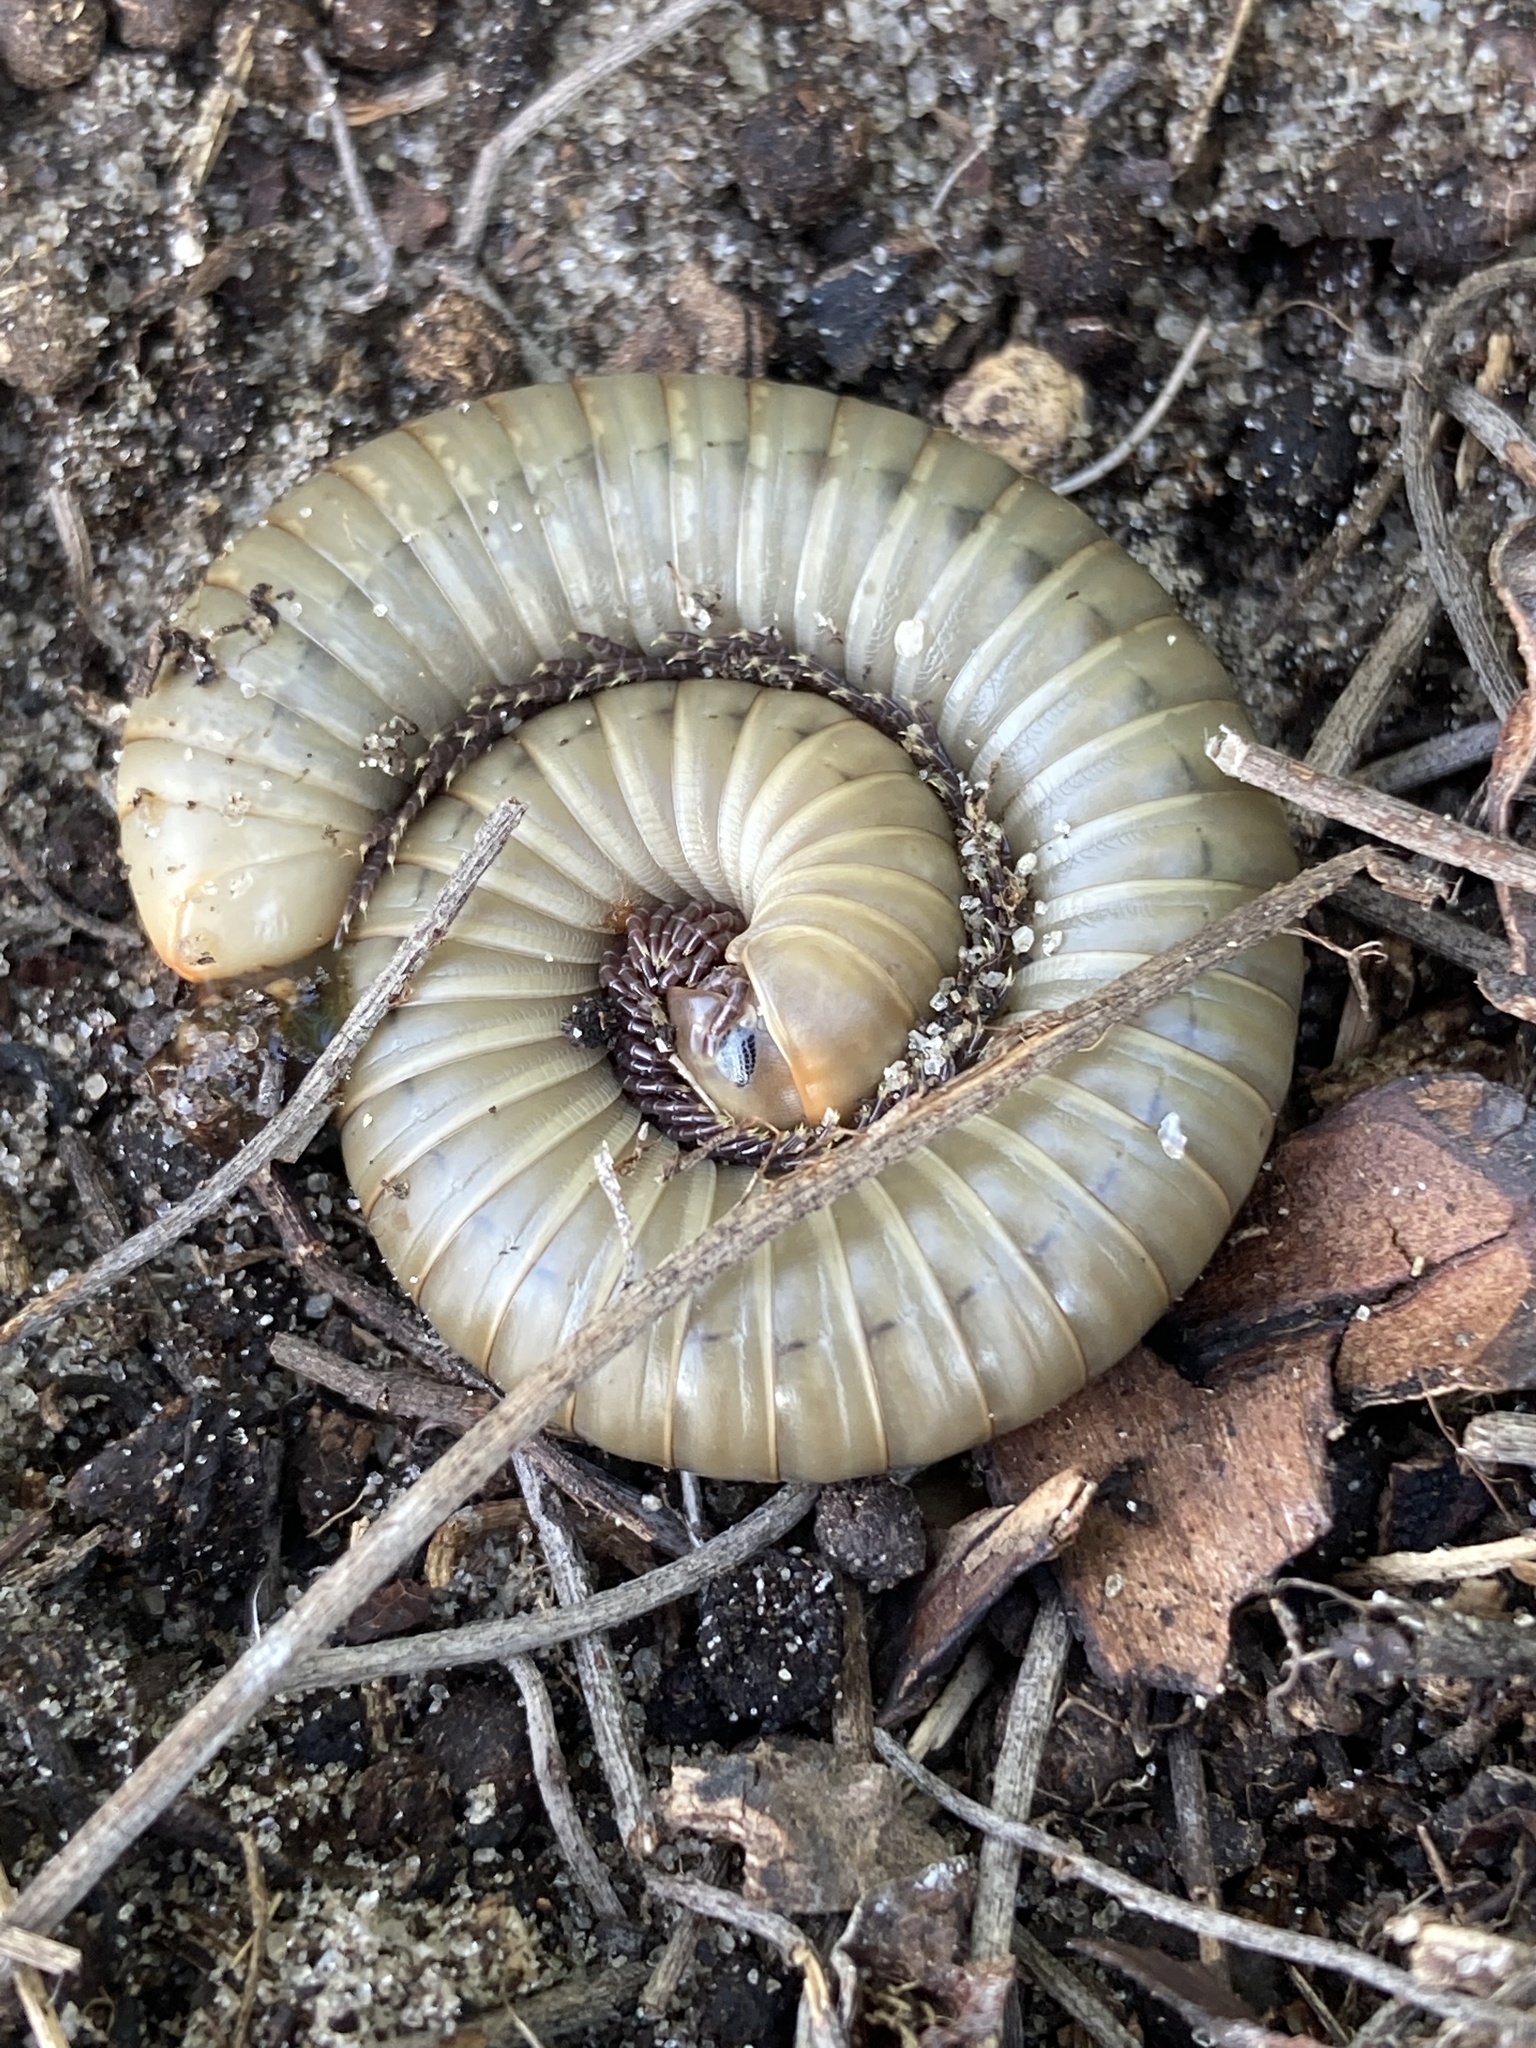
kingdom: Animalia
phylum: Arthropoda
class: Diplopoda
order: Spirobolida
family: Spirobolidae
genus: Narceus
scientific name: Narceus gordanus
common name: Grayish-green millipede
